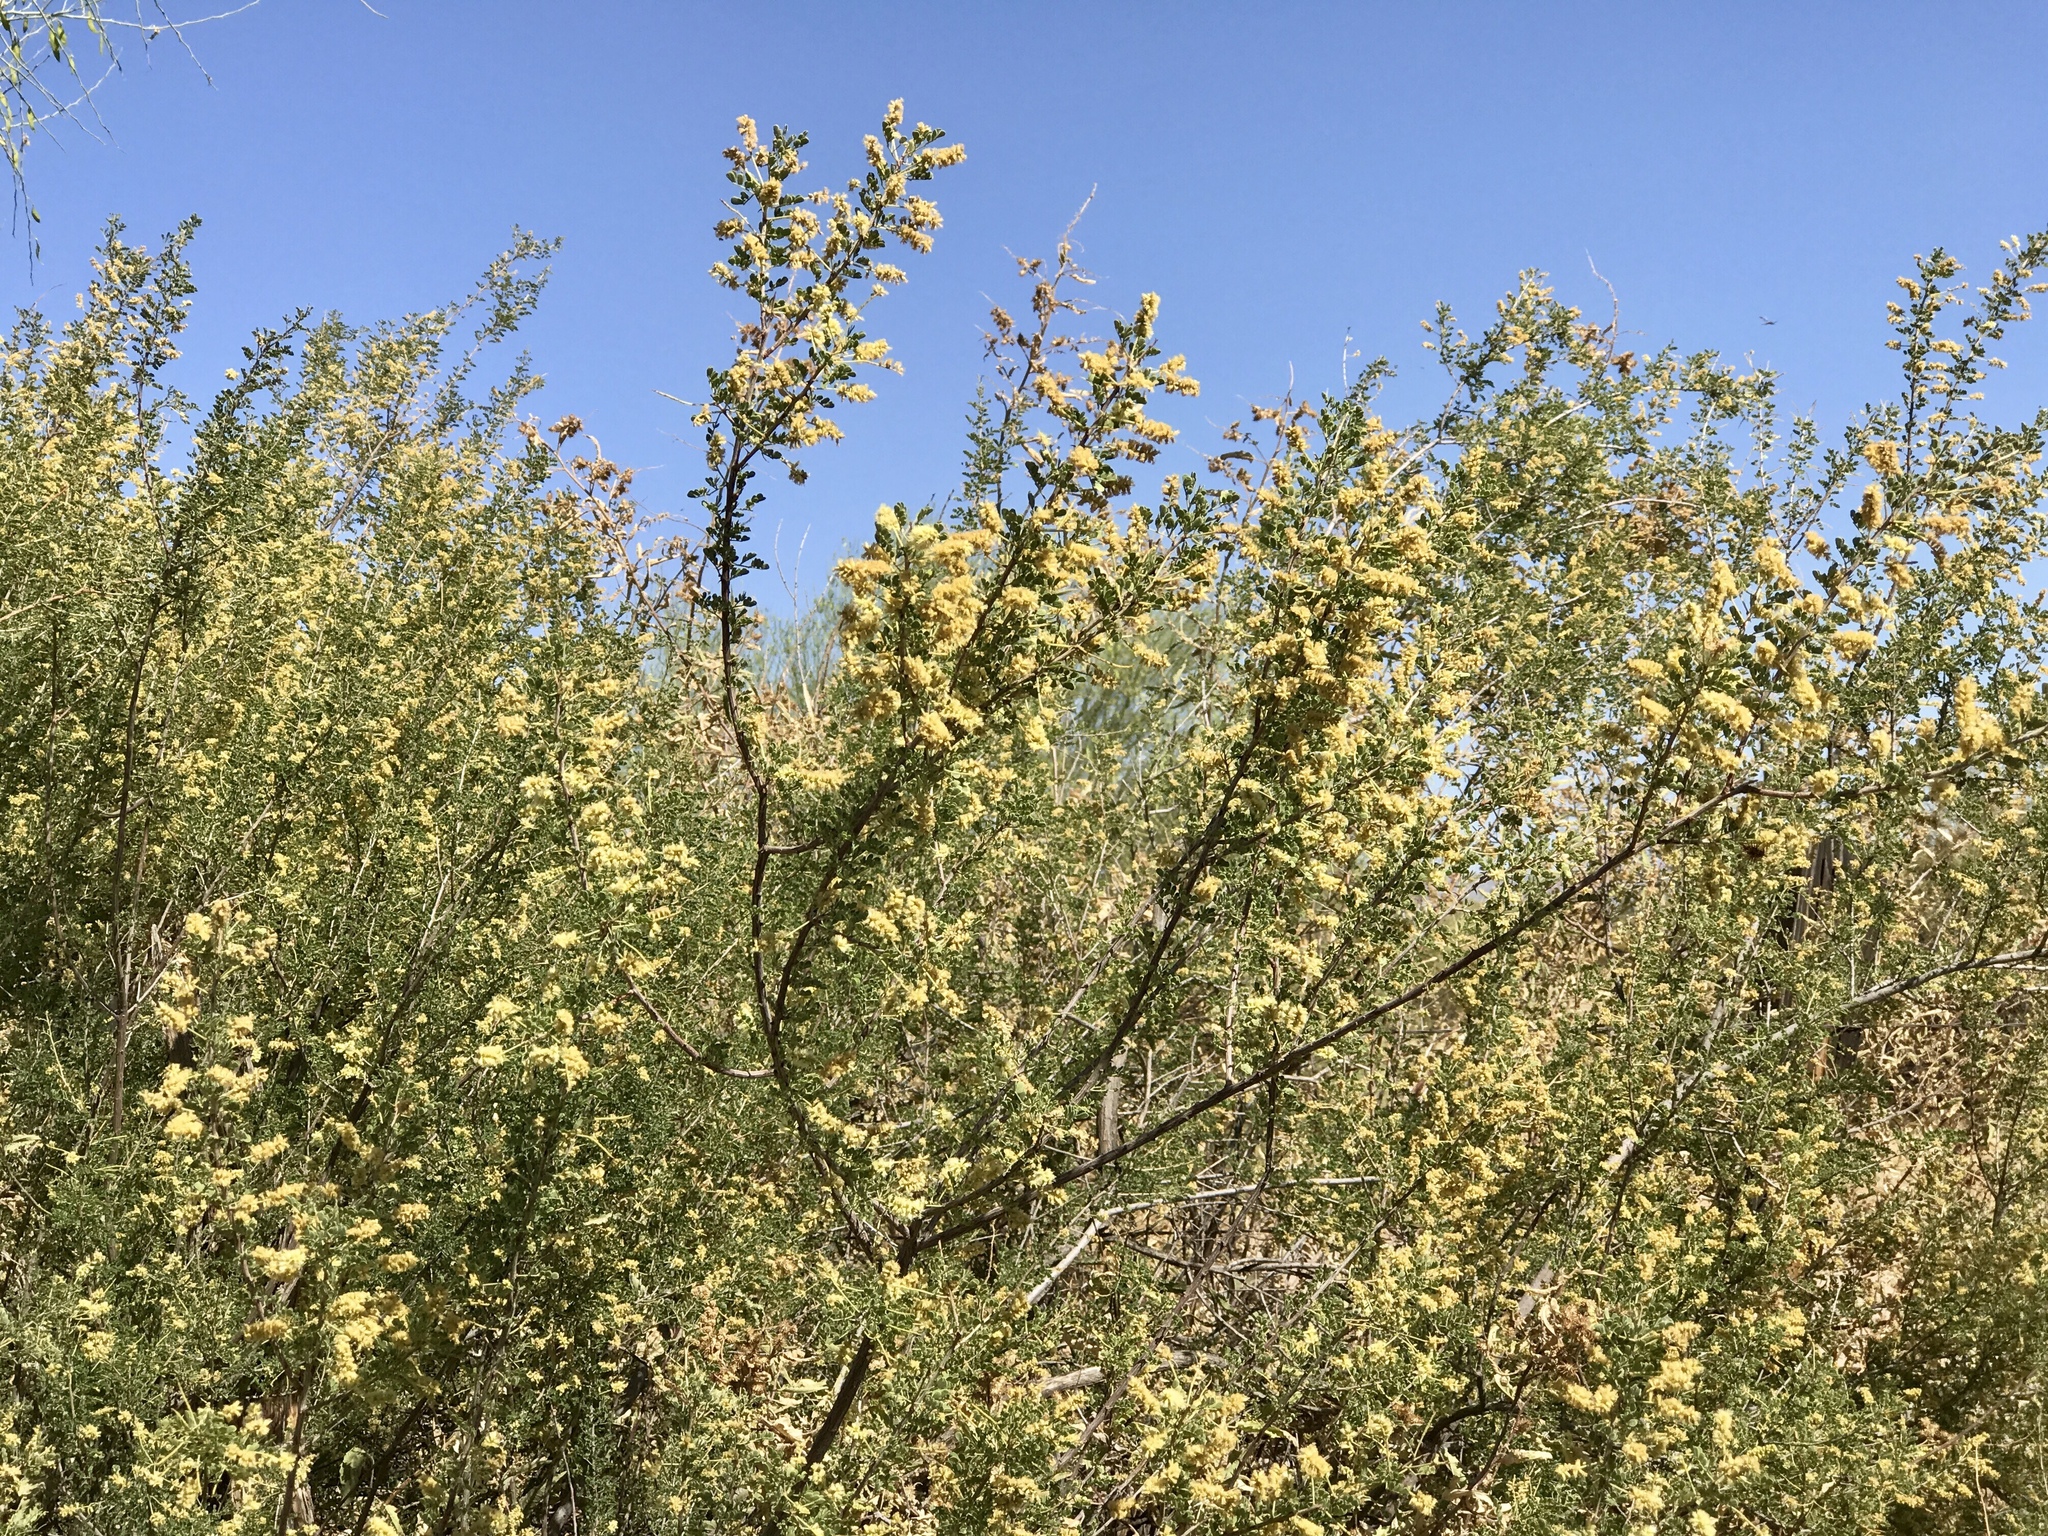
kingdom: Plantae
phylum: Tracheophyta
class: Magnoliopsida
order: Fabales
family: Fabaceae
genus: Senegalia
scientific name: Senegalia greggii
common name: Texas-mimosa
